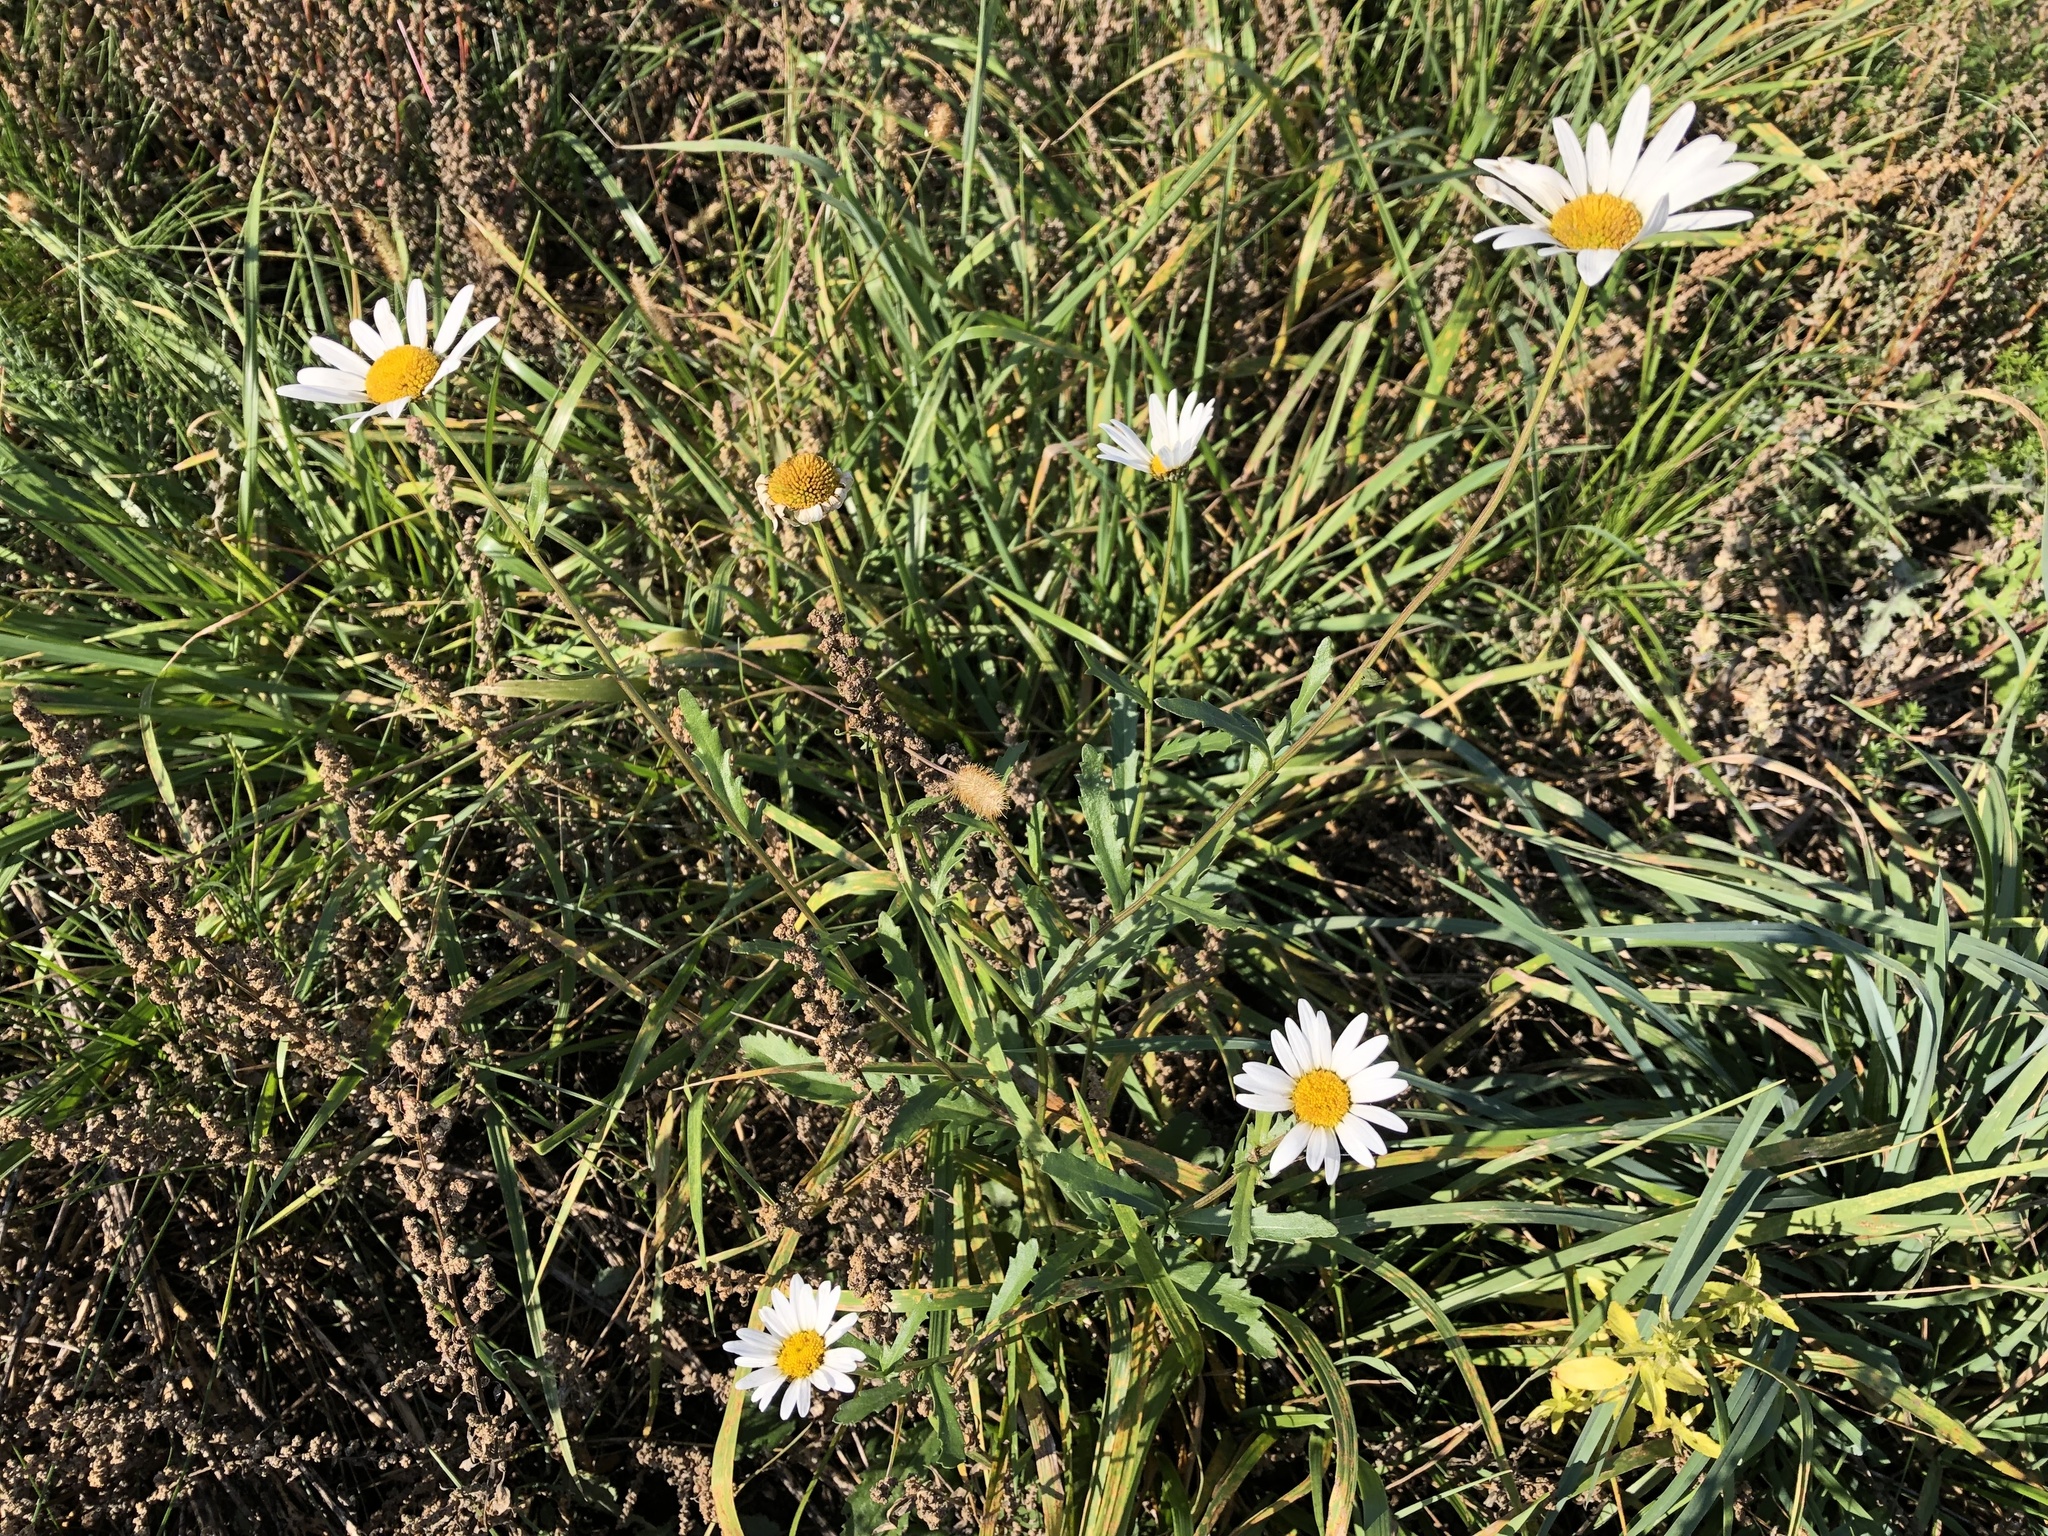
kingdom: Plantae
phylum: Tracheophyta
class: Magnoliopsida
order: Asterales
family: Asteraceae
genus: Leucanthemum
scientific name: Leucanthemum vulgare
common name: Oxeye daisy
